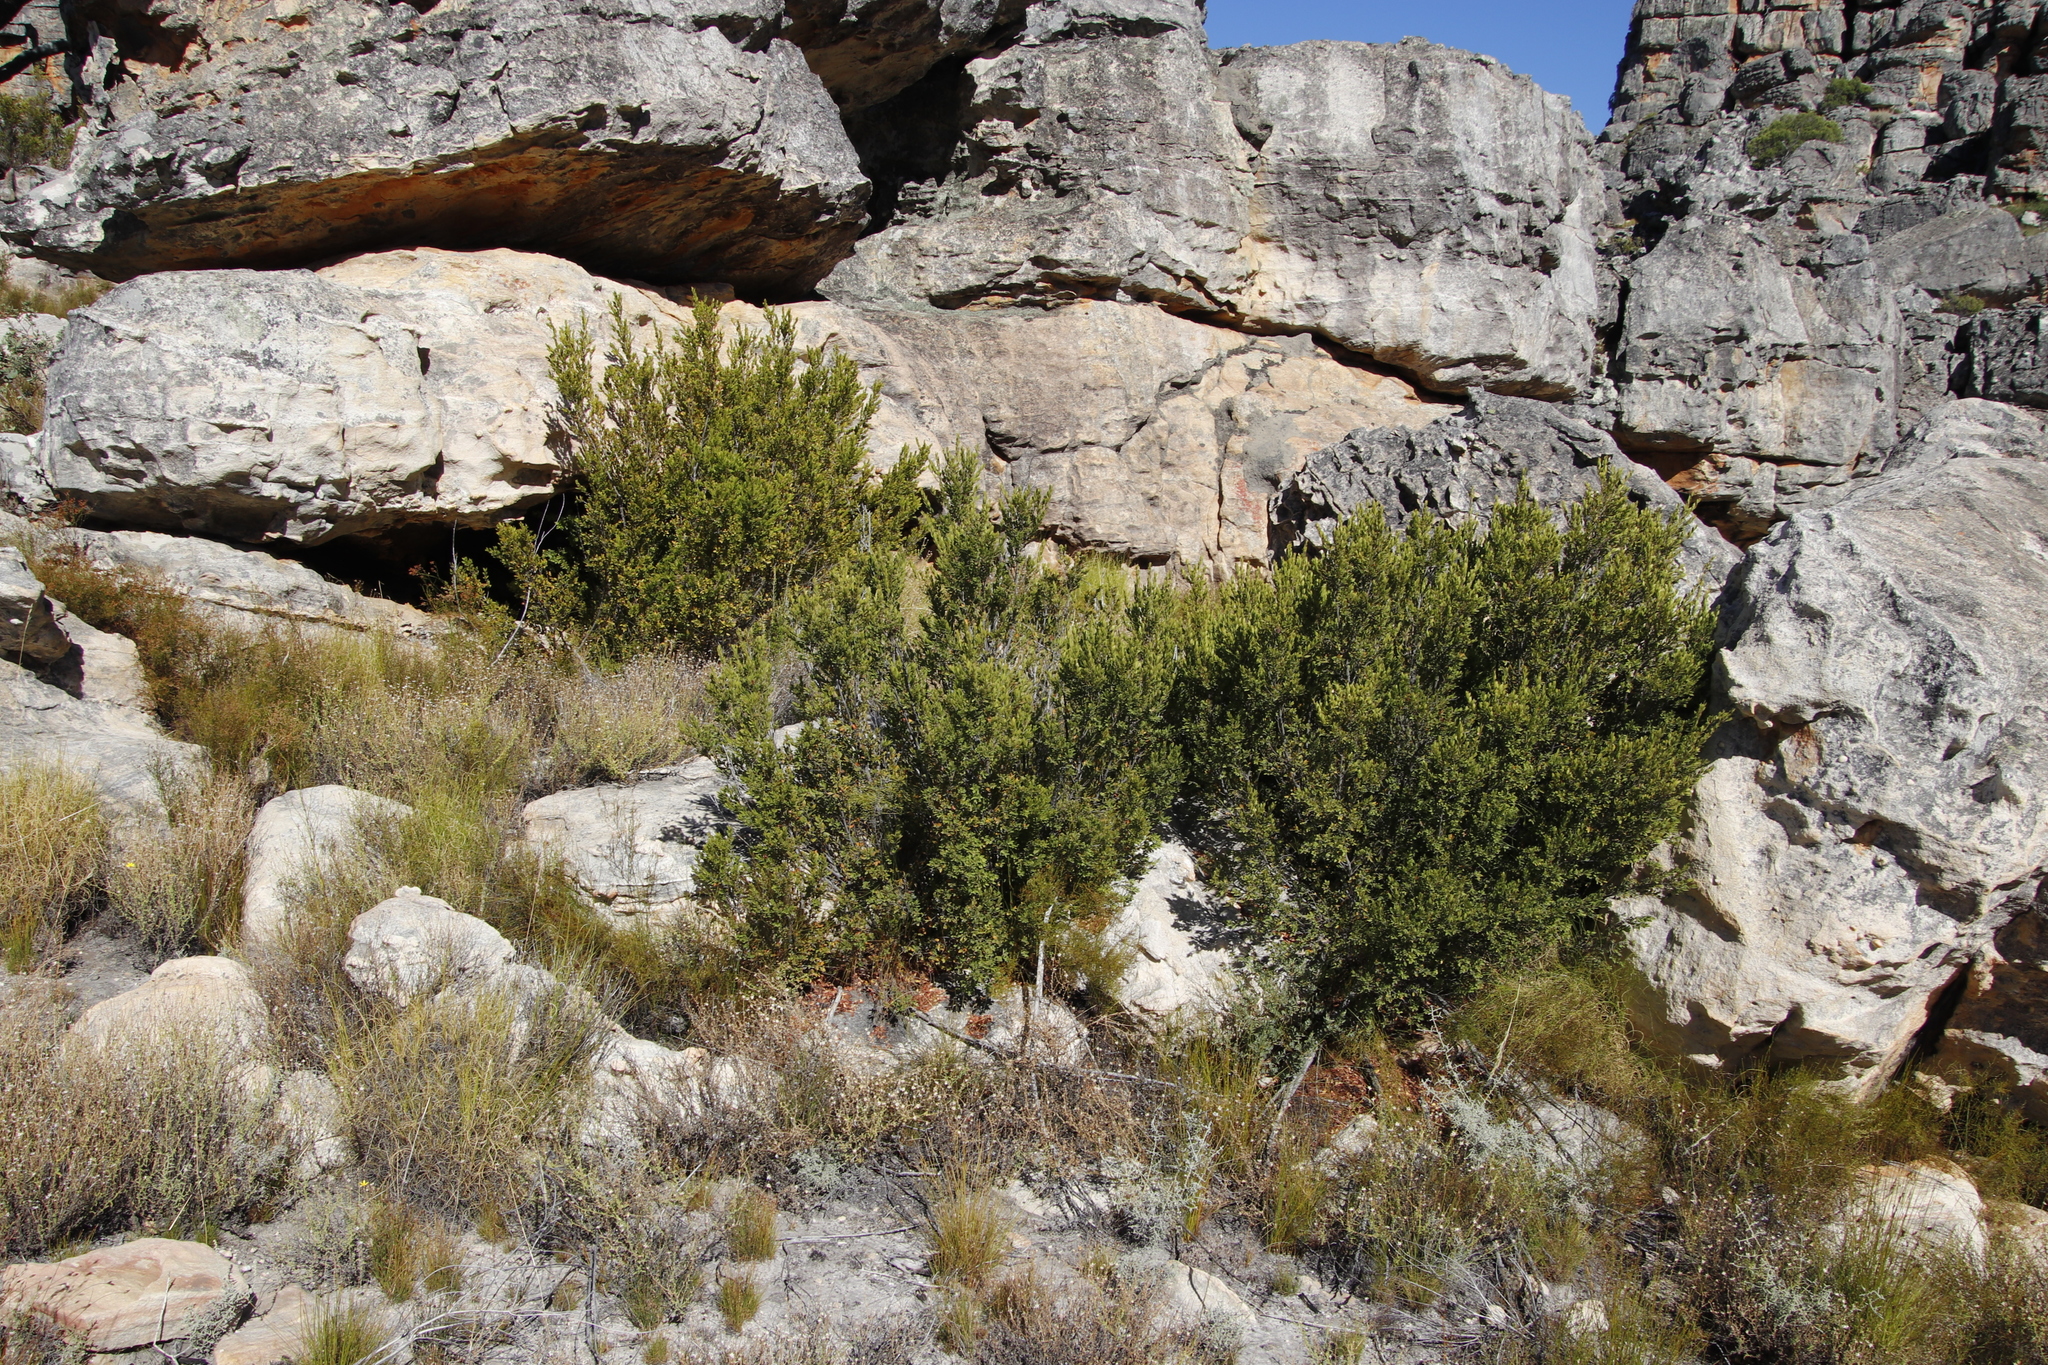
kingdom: Plantae
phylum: Tracheophyta
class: Magnoliopsida
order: Ericales
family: Ebenaceae
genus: Diospyros
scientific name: Diospyros glabra
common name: Fynbos star apple
